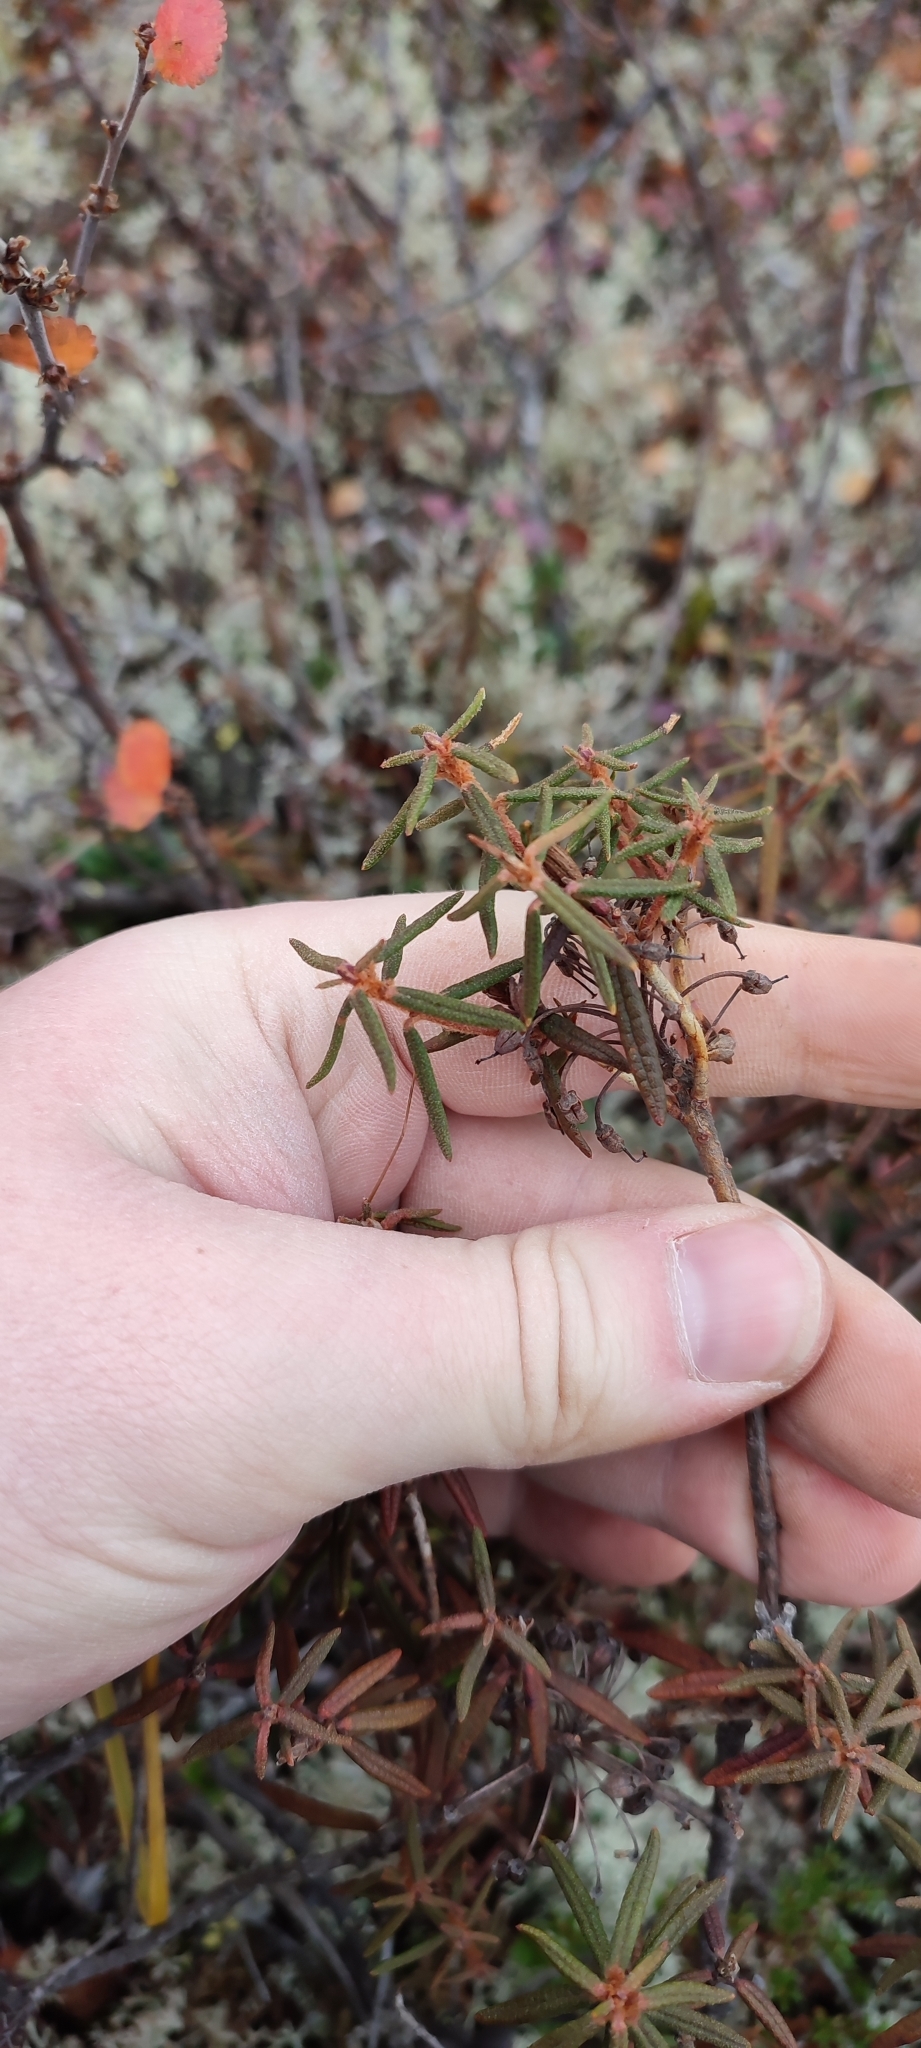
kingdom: Plantae
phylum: Tracheophyta
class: Magnoliopsida
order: Ericales
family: Ericaceae
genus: Rhododendron
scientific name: Rhododendron tomentosum
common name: Marsh labrador tea
